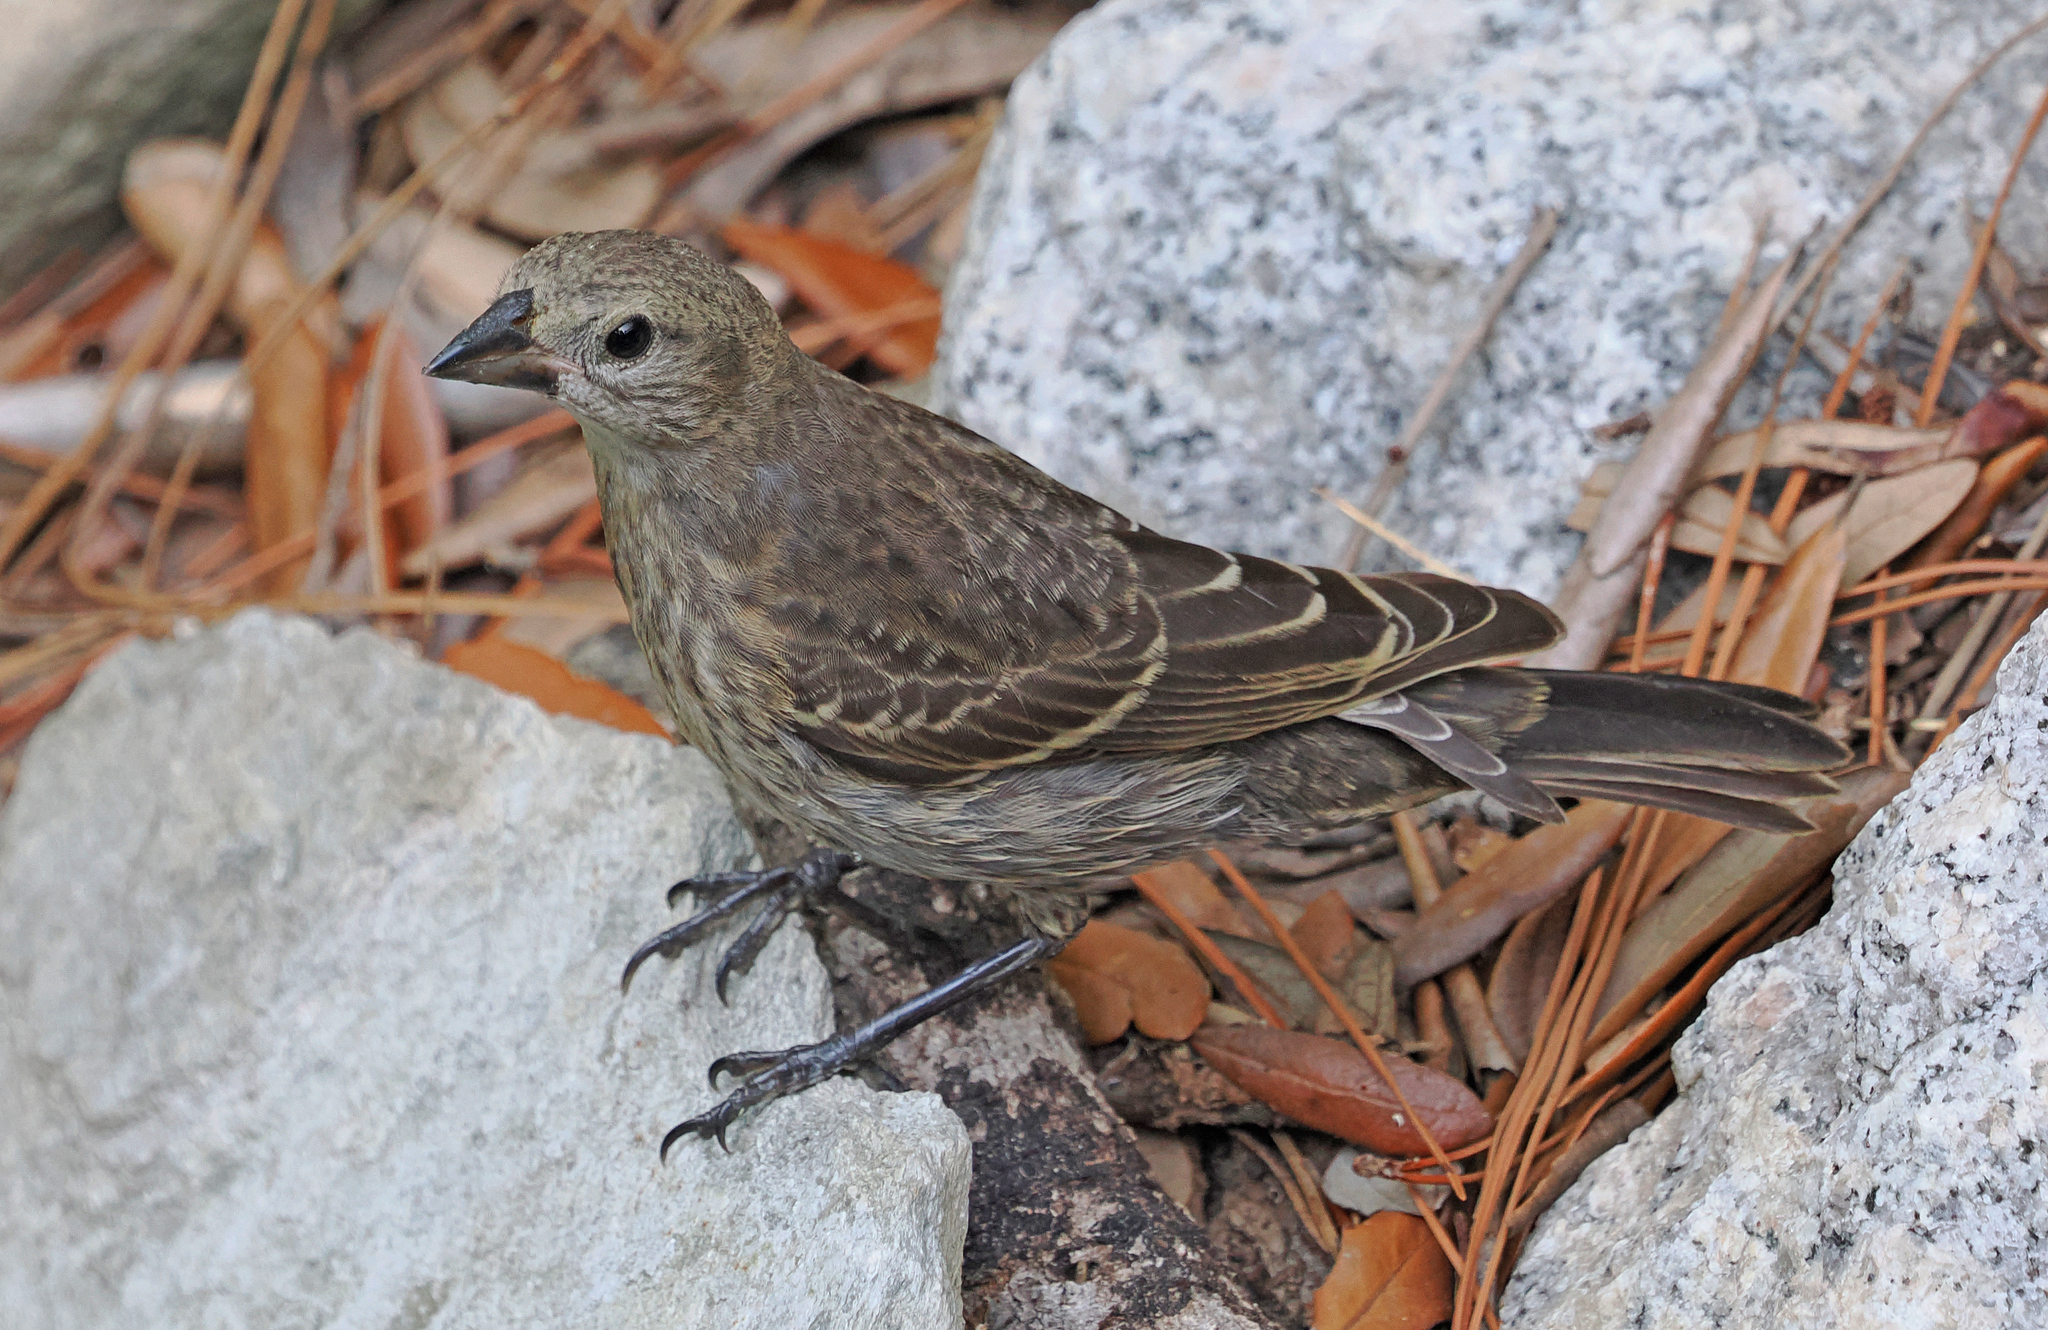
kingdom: Animalia
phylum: Chordata
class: Aves
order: Passeriformes
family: Icteridae
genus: Molothrus
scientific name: Molothrus ater
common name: Brown-headed cowbird
